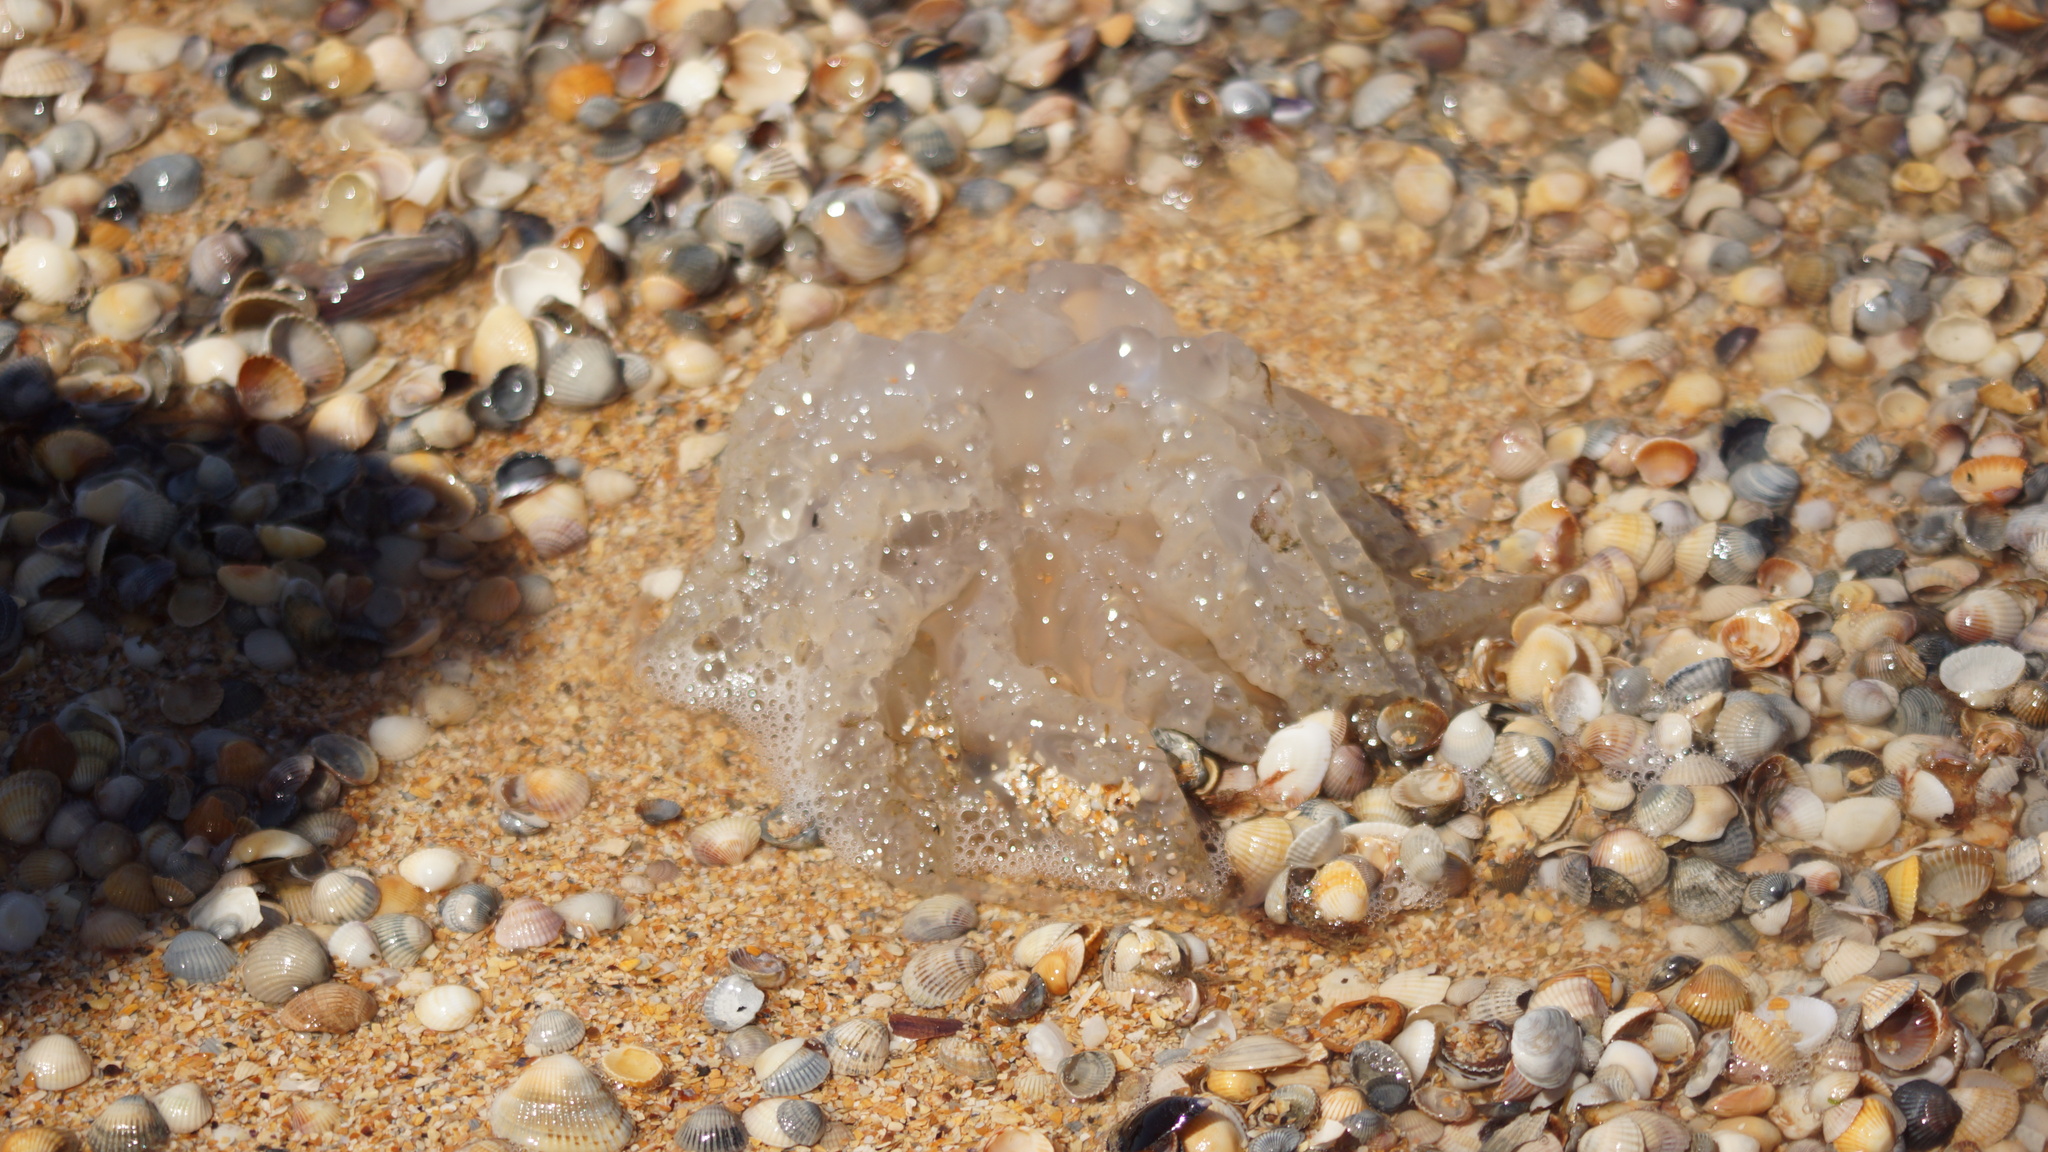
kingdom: Animalia
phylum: Cnidaria
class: Scyphozoa
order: Rhizostomeae
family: Rhizostomatidae
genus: Rhizostoma
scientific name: Rhizostoma pulmo
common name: Barrel jellyfish
